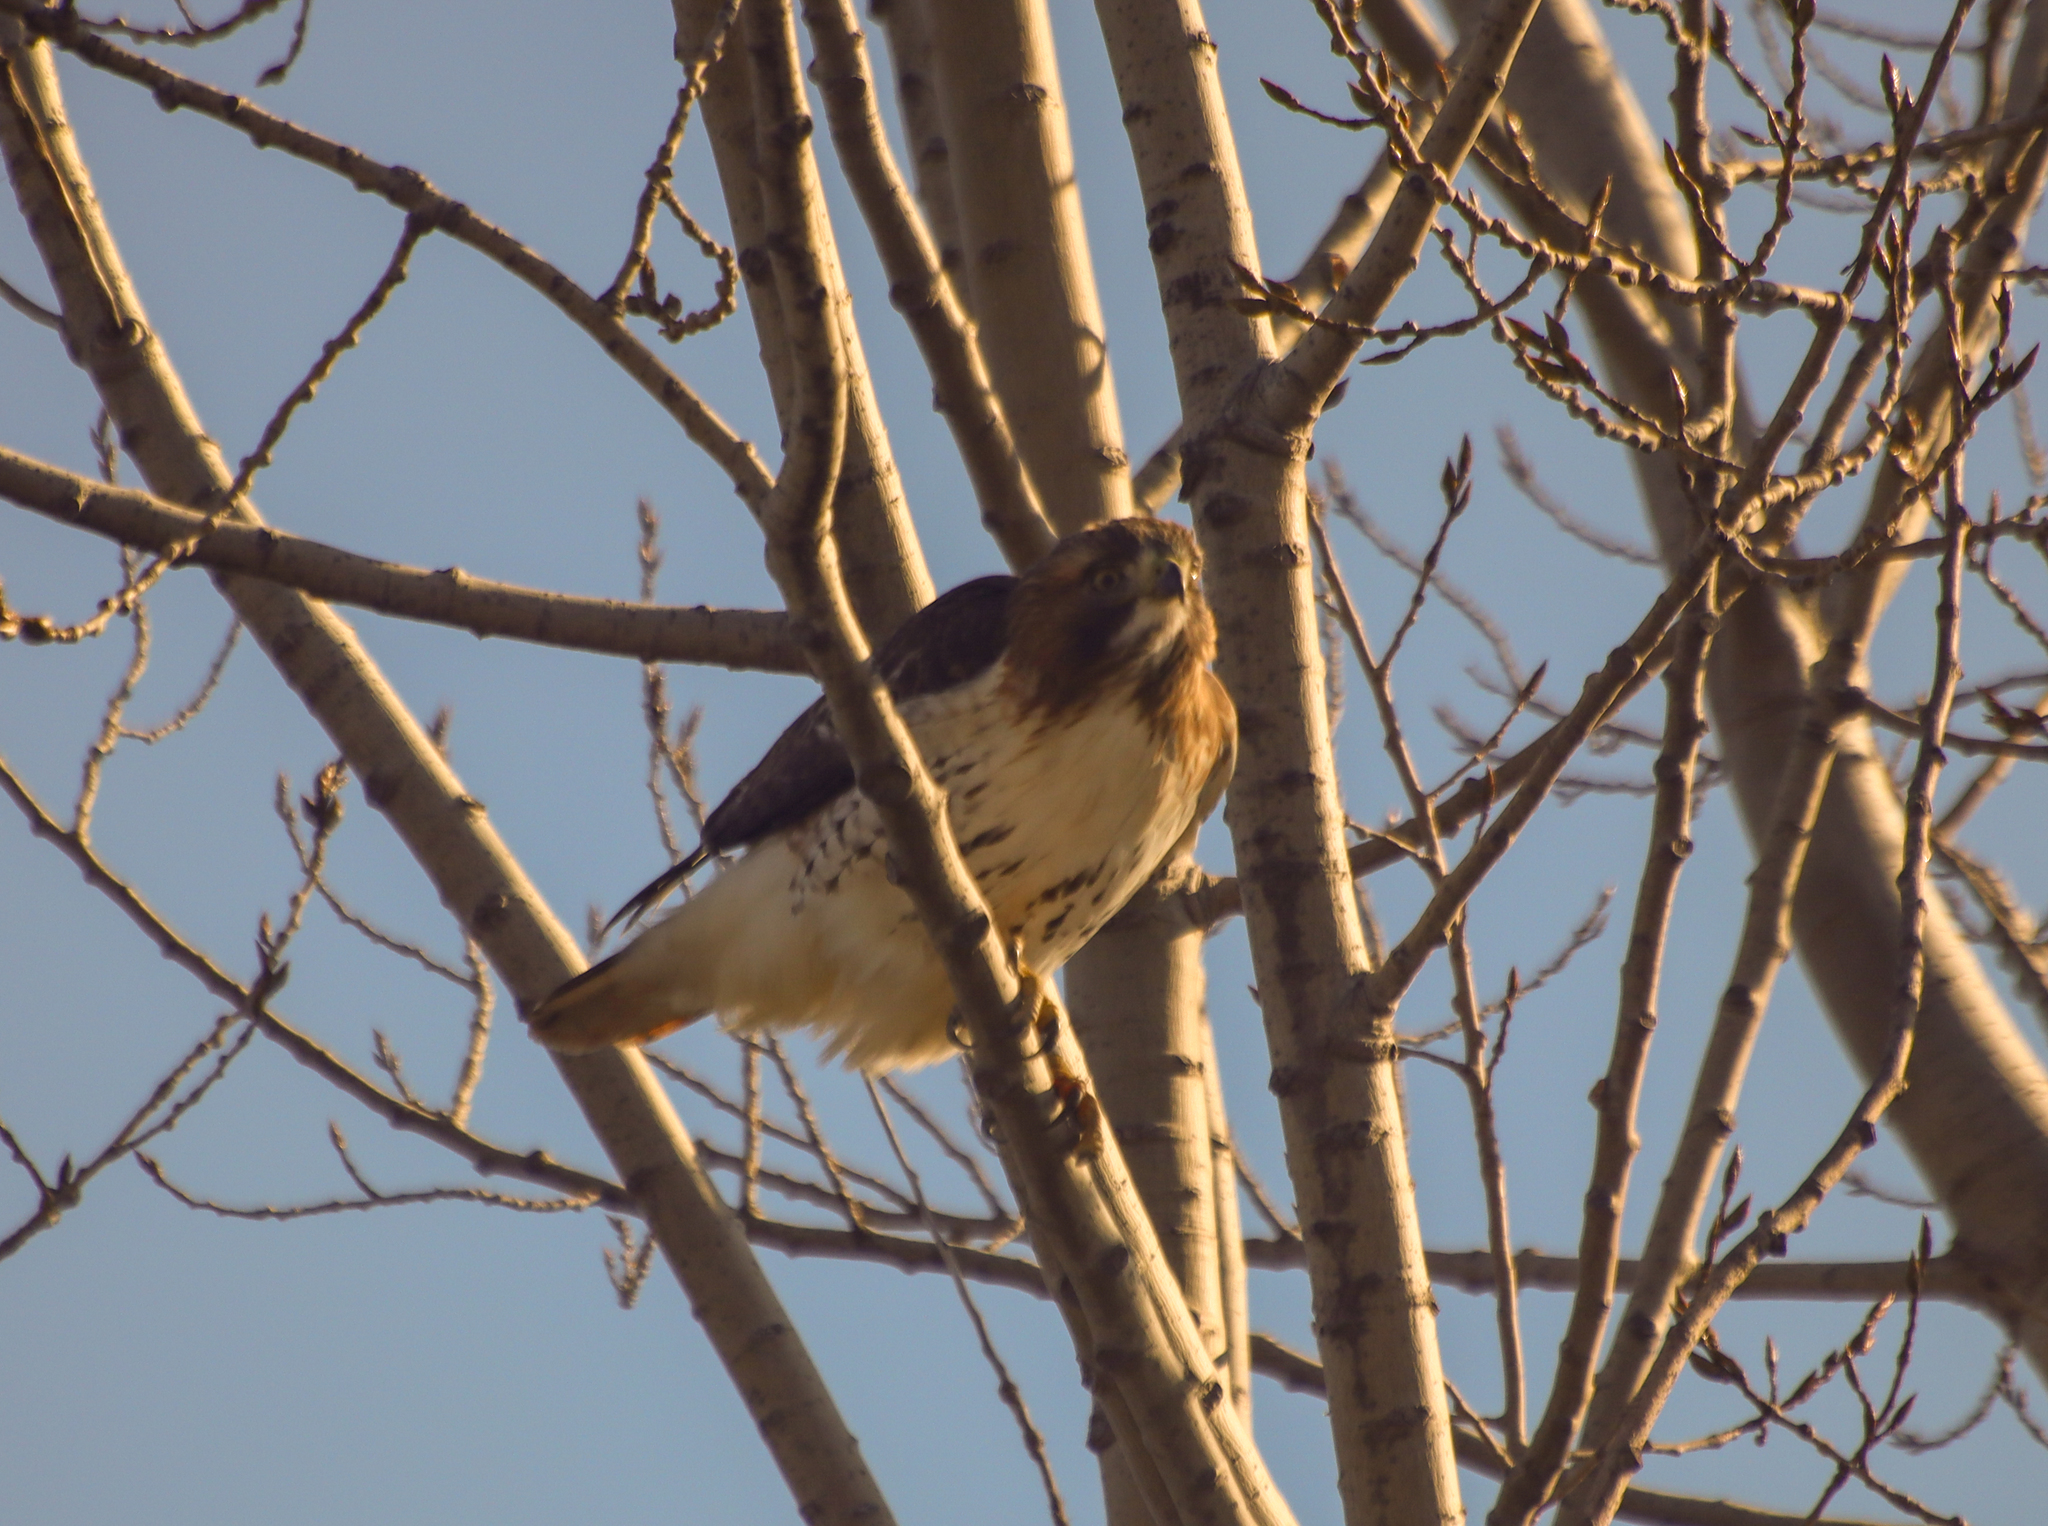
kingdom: Animalia
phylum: Chordata
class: Aves
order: Accipitriformes
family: Accipitridae
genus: Buteo
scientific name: Buteo jamaicensis
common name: Red-tailed hawk
